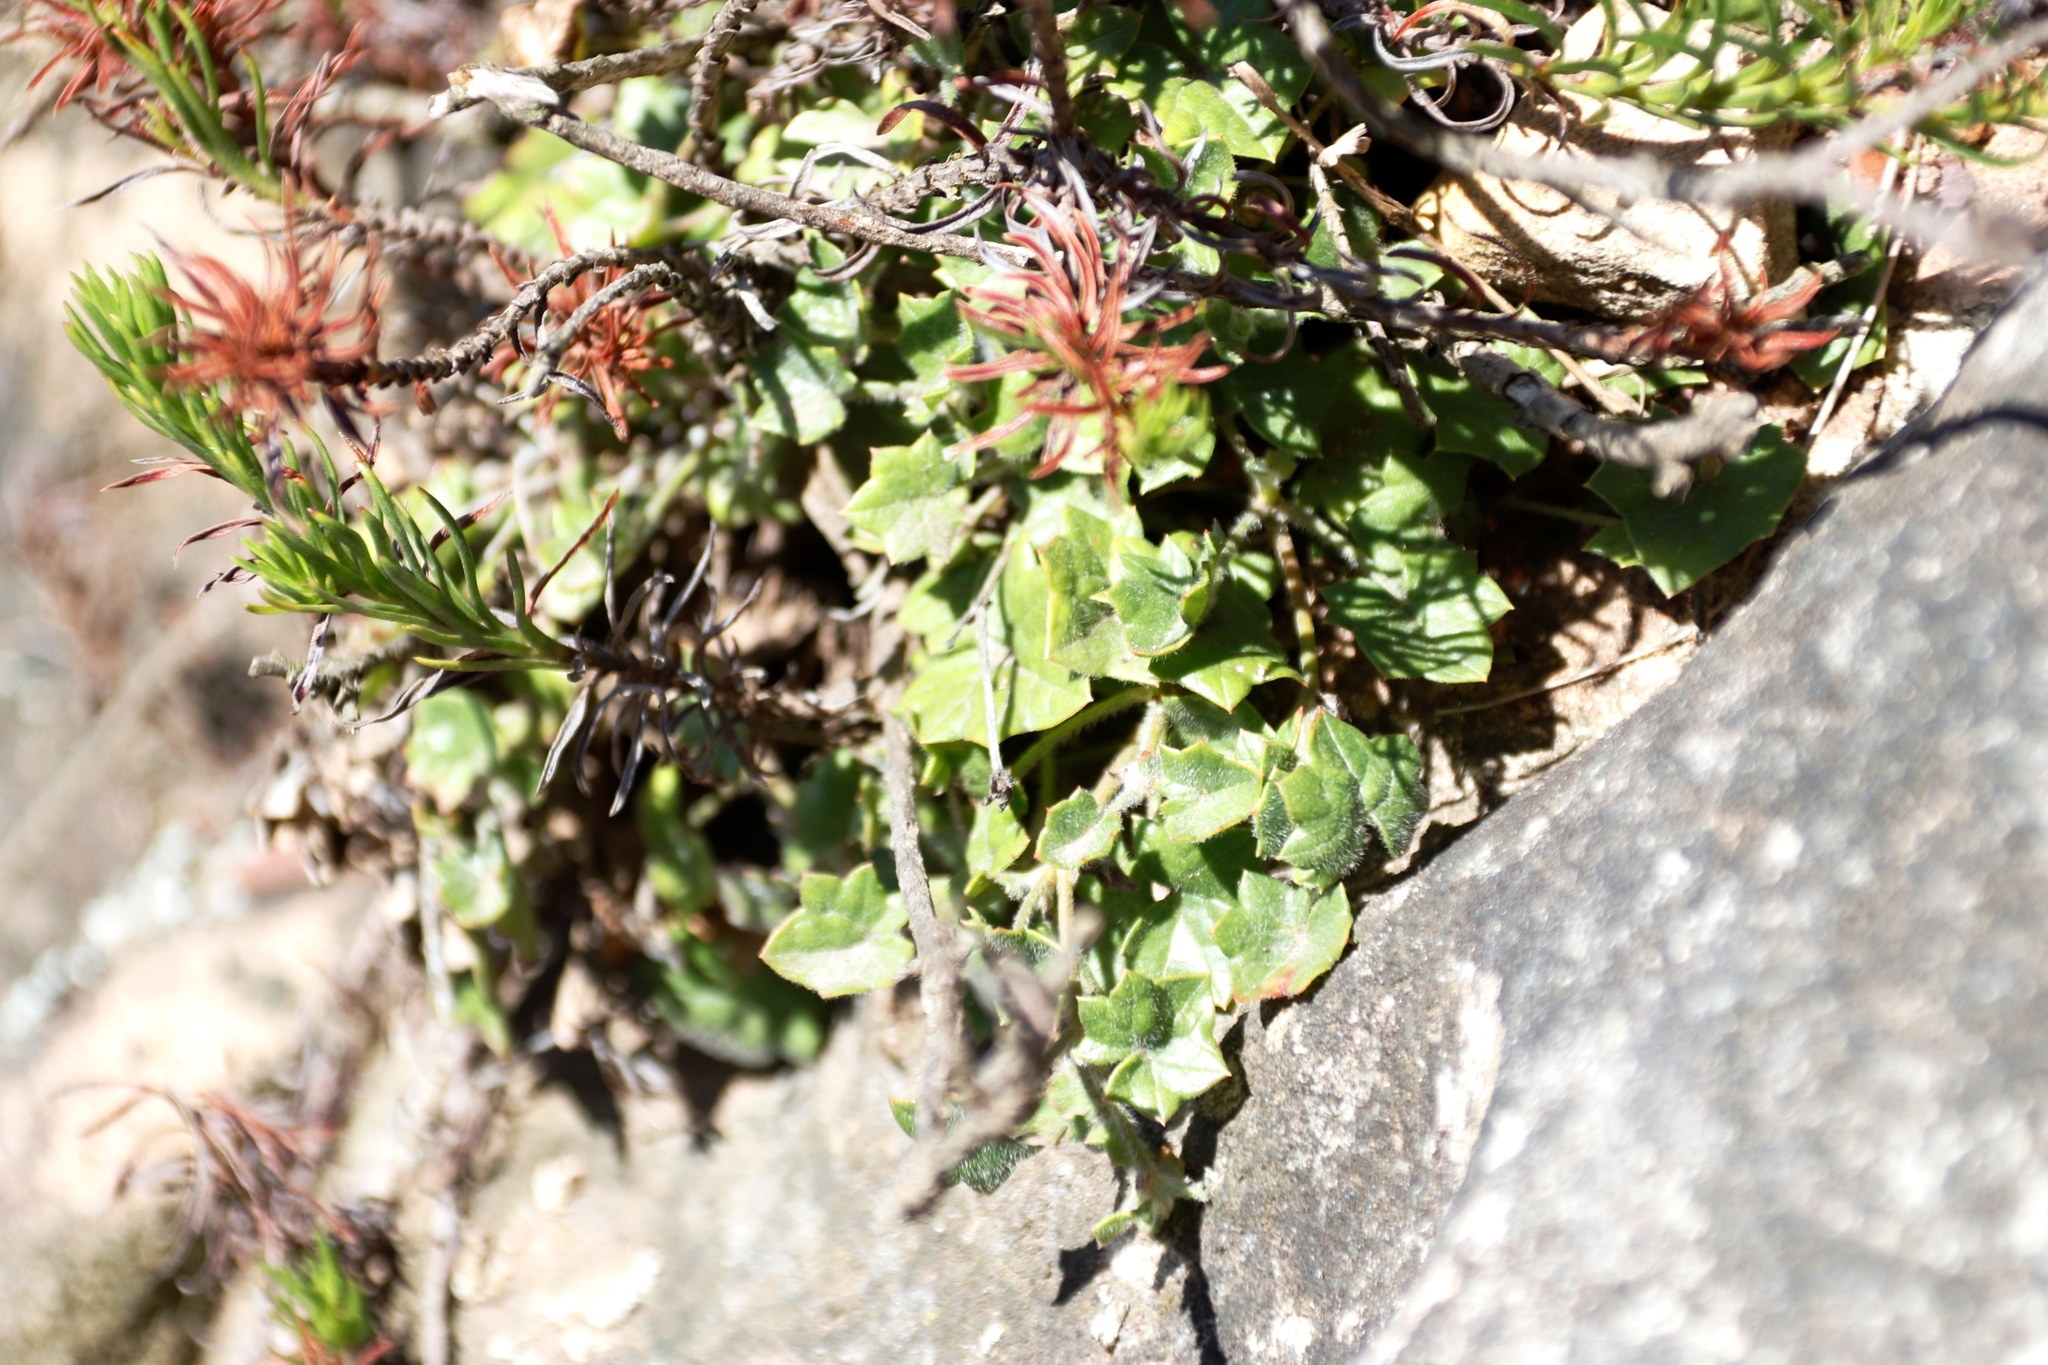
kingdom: Plantae
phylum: Tracheophyta
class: Magnoliopsida
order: Apiales
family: Apiaceae
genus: Centella
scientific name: Centella macroda
